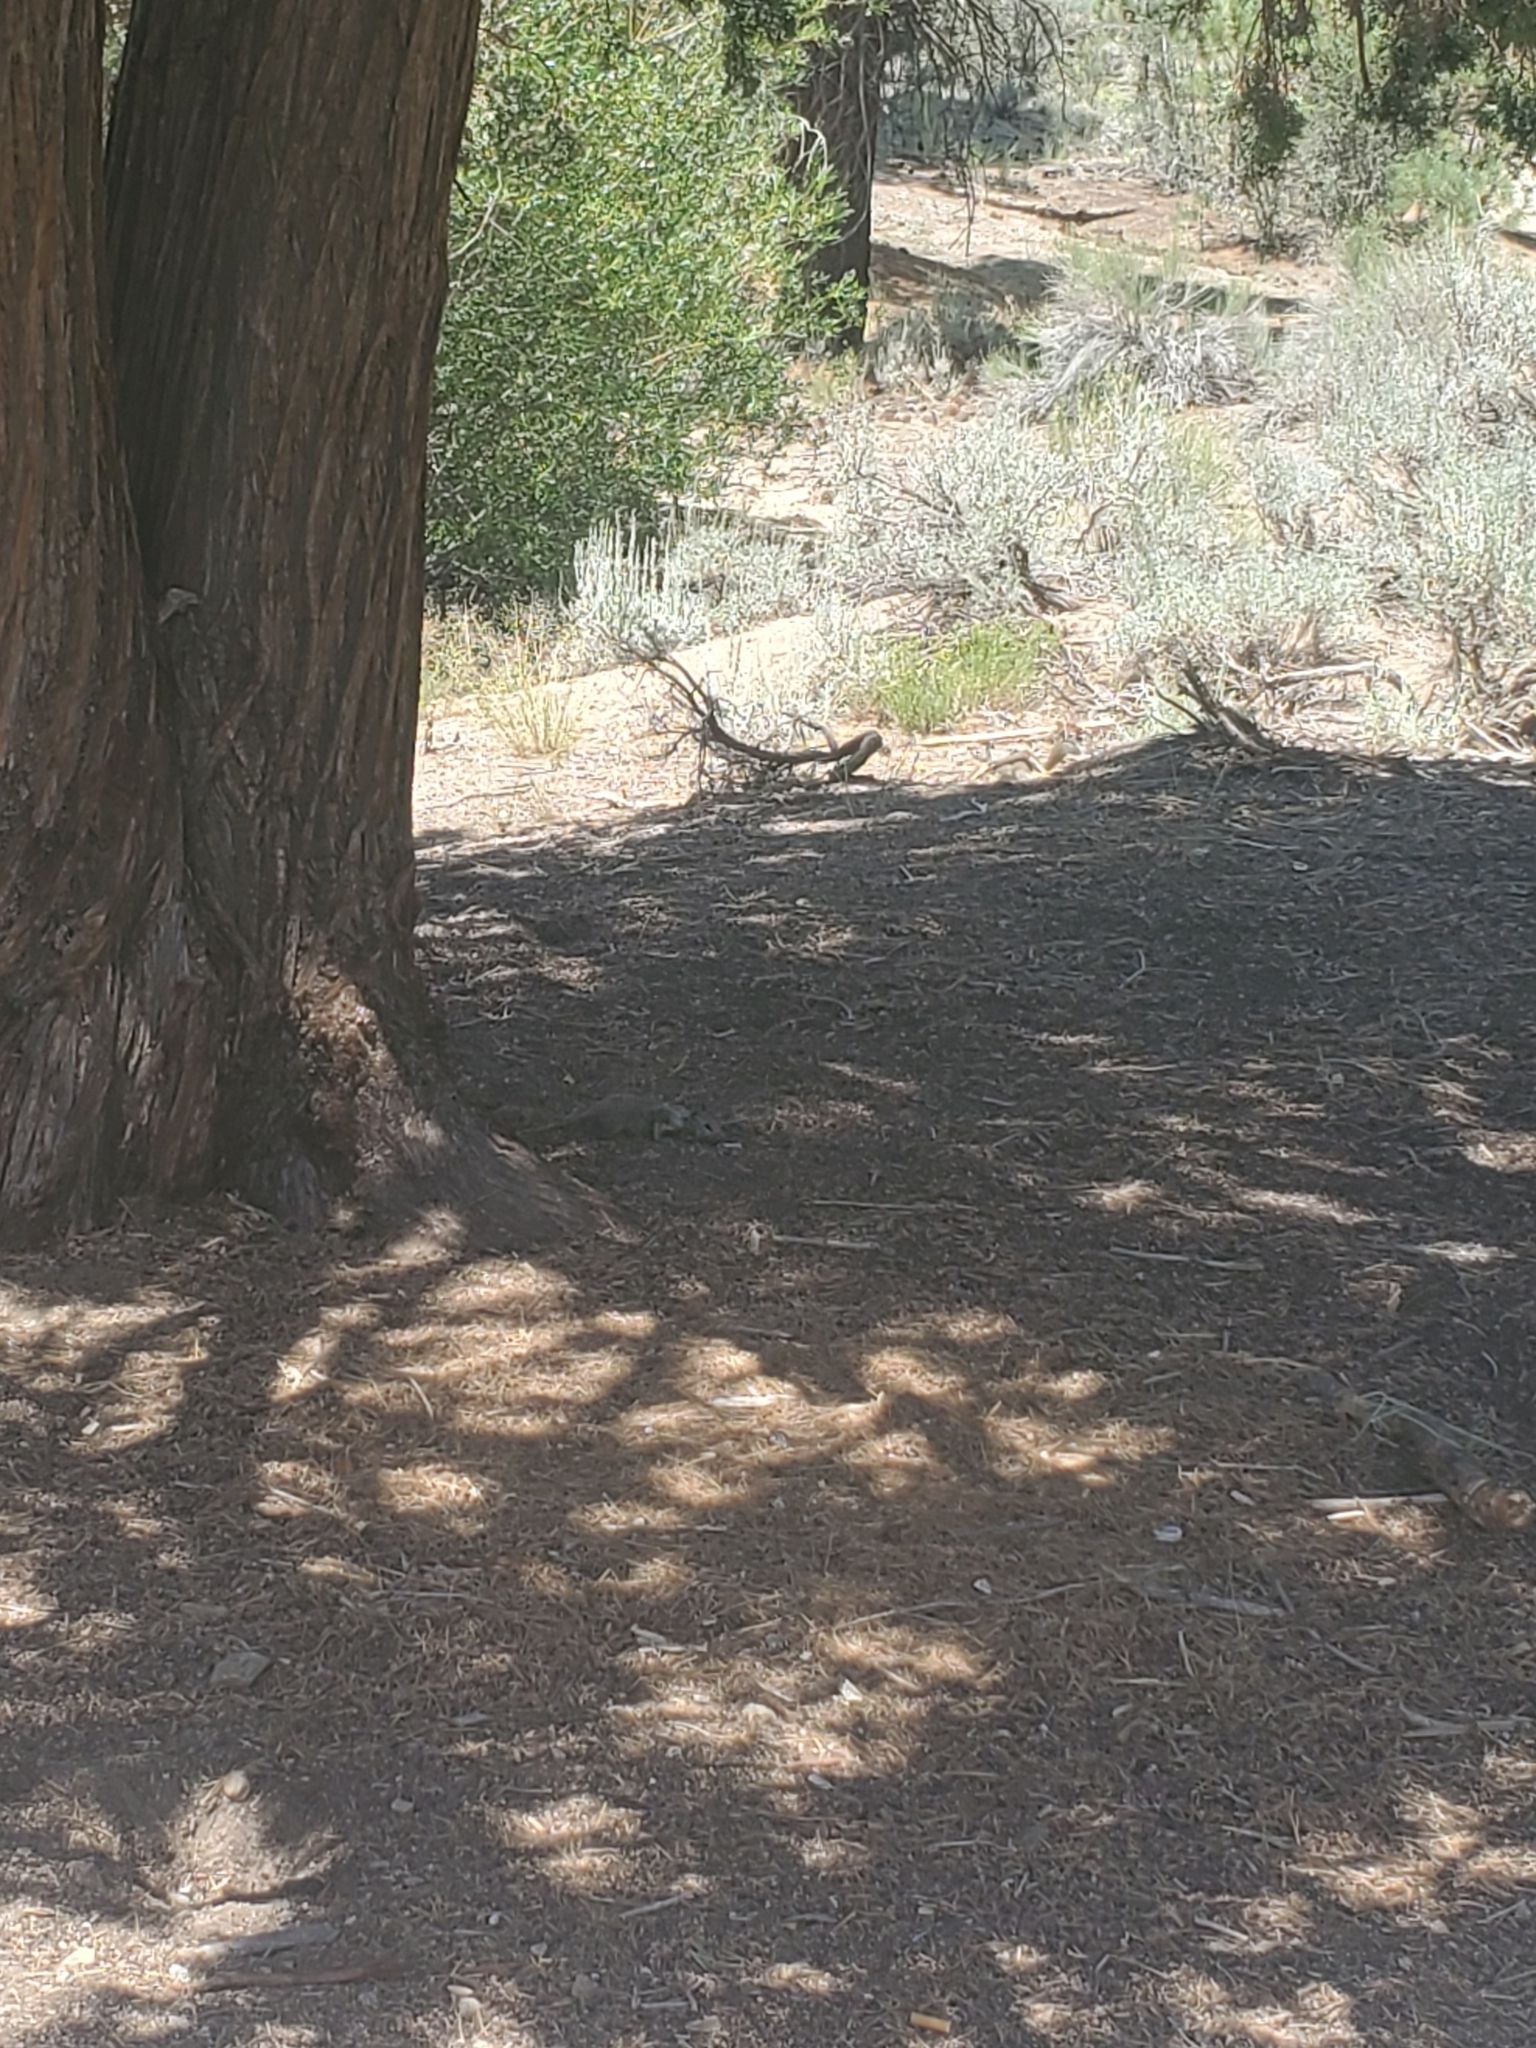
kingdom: Animalia
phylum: Chordata
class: Mammalia
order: Rodentia
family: Sciuridae
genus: Otospermophilus
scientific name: Otospermophilus beecheyi
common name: California ground squirrel
